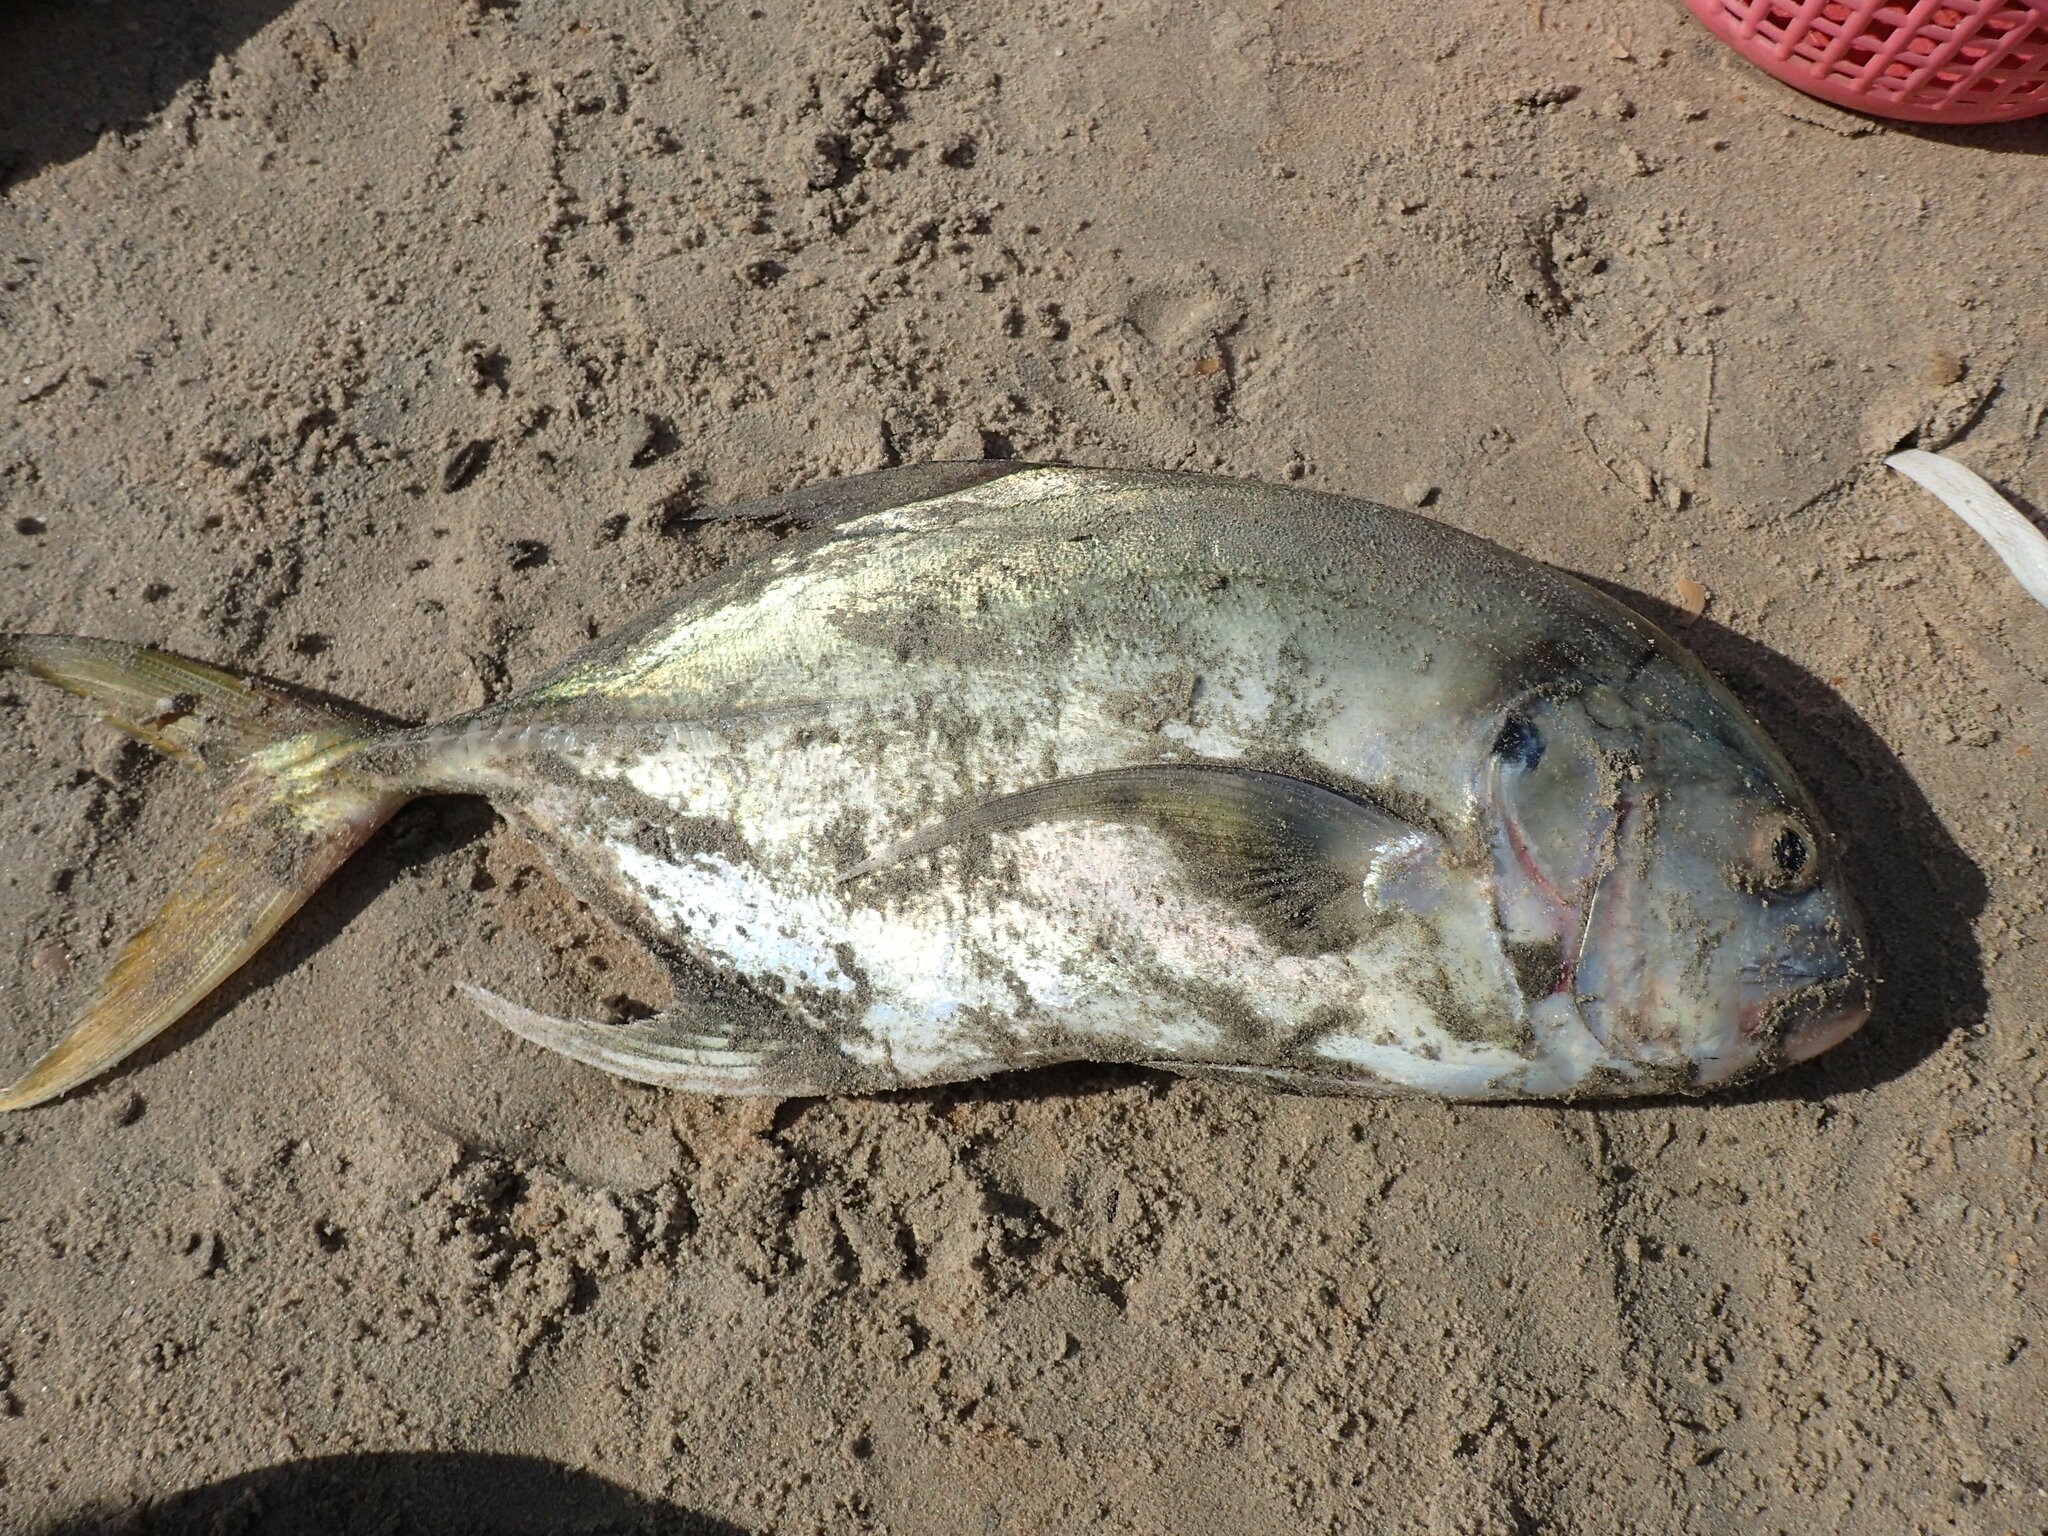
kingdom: Animalia
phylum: Chordata
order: Perciformes
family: Carangidae
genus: Caranx
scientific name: Caranx fischeri
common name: Longfin crevalle jack
